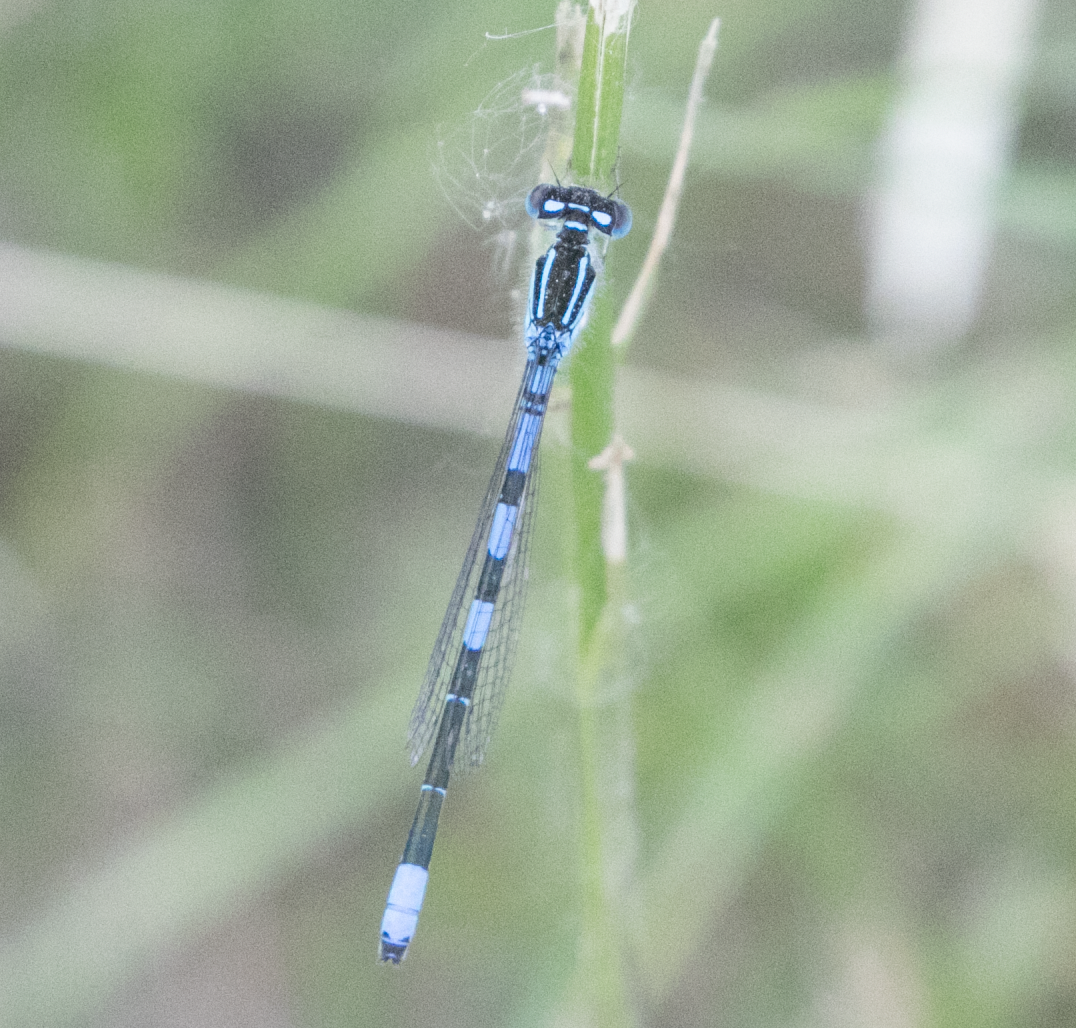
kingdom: Animalia
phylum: Arthropoda
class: Insecta
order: Odonata
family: Coenagrionidae
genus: Coenagrion
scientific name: Coenagrion scitulum
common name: Dainty bluet
